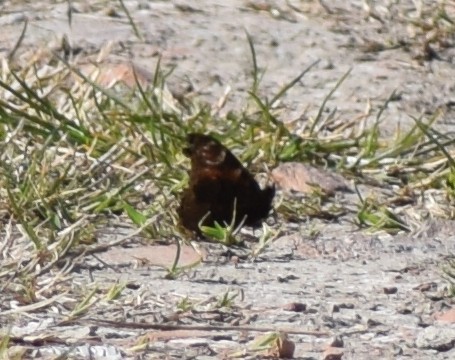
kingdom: Animalia
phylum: Arthropoda
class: Insecta
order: Lepidoptera
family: Nymphalidae
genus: Aglais
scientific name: Aglais io
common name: Peacock
